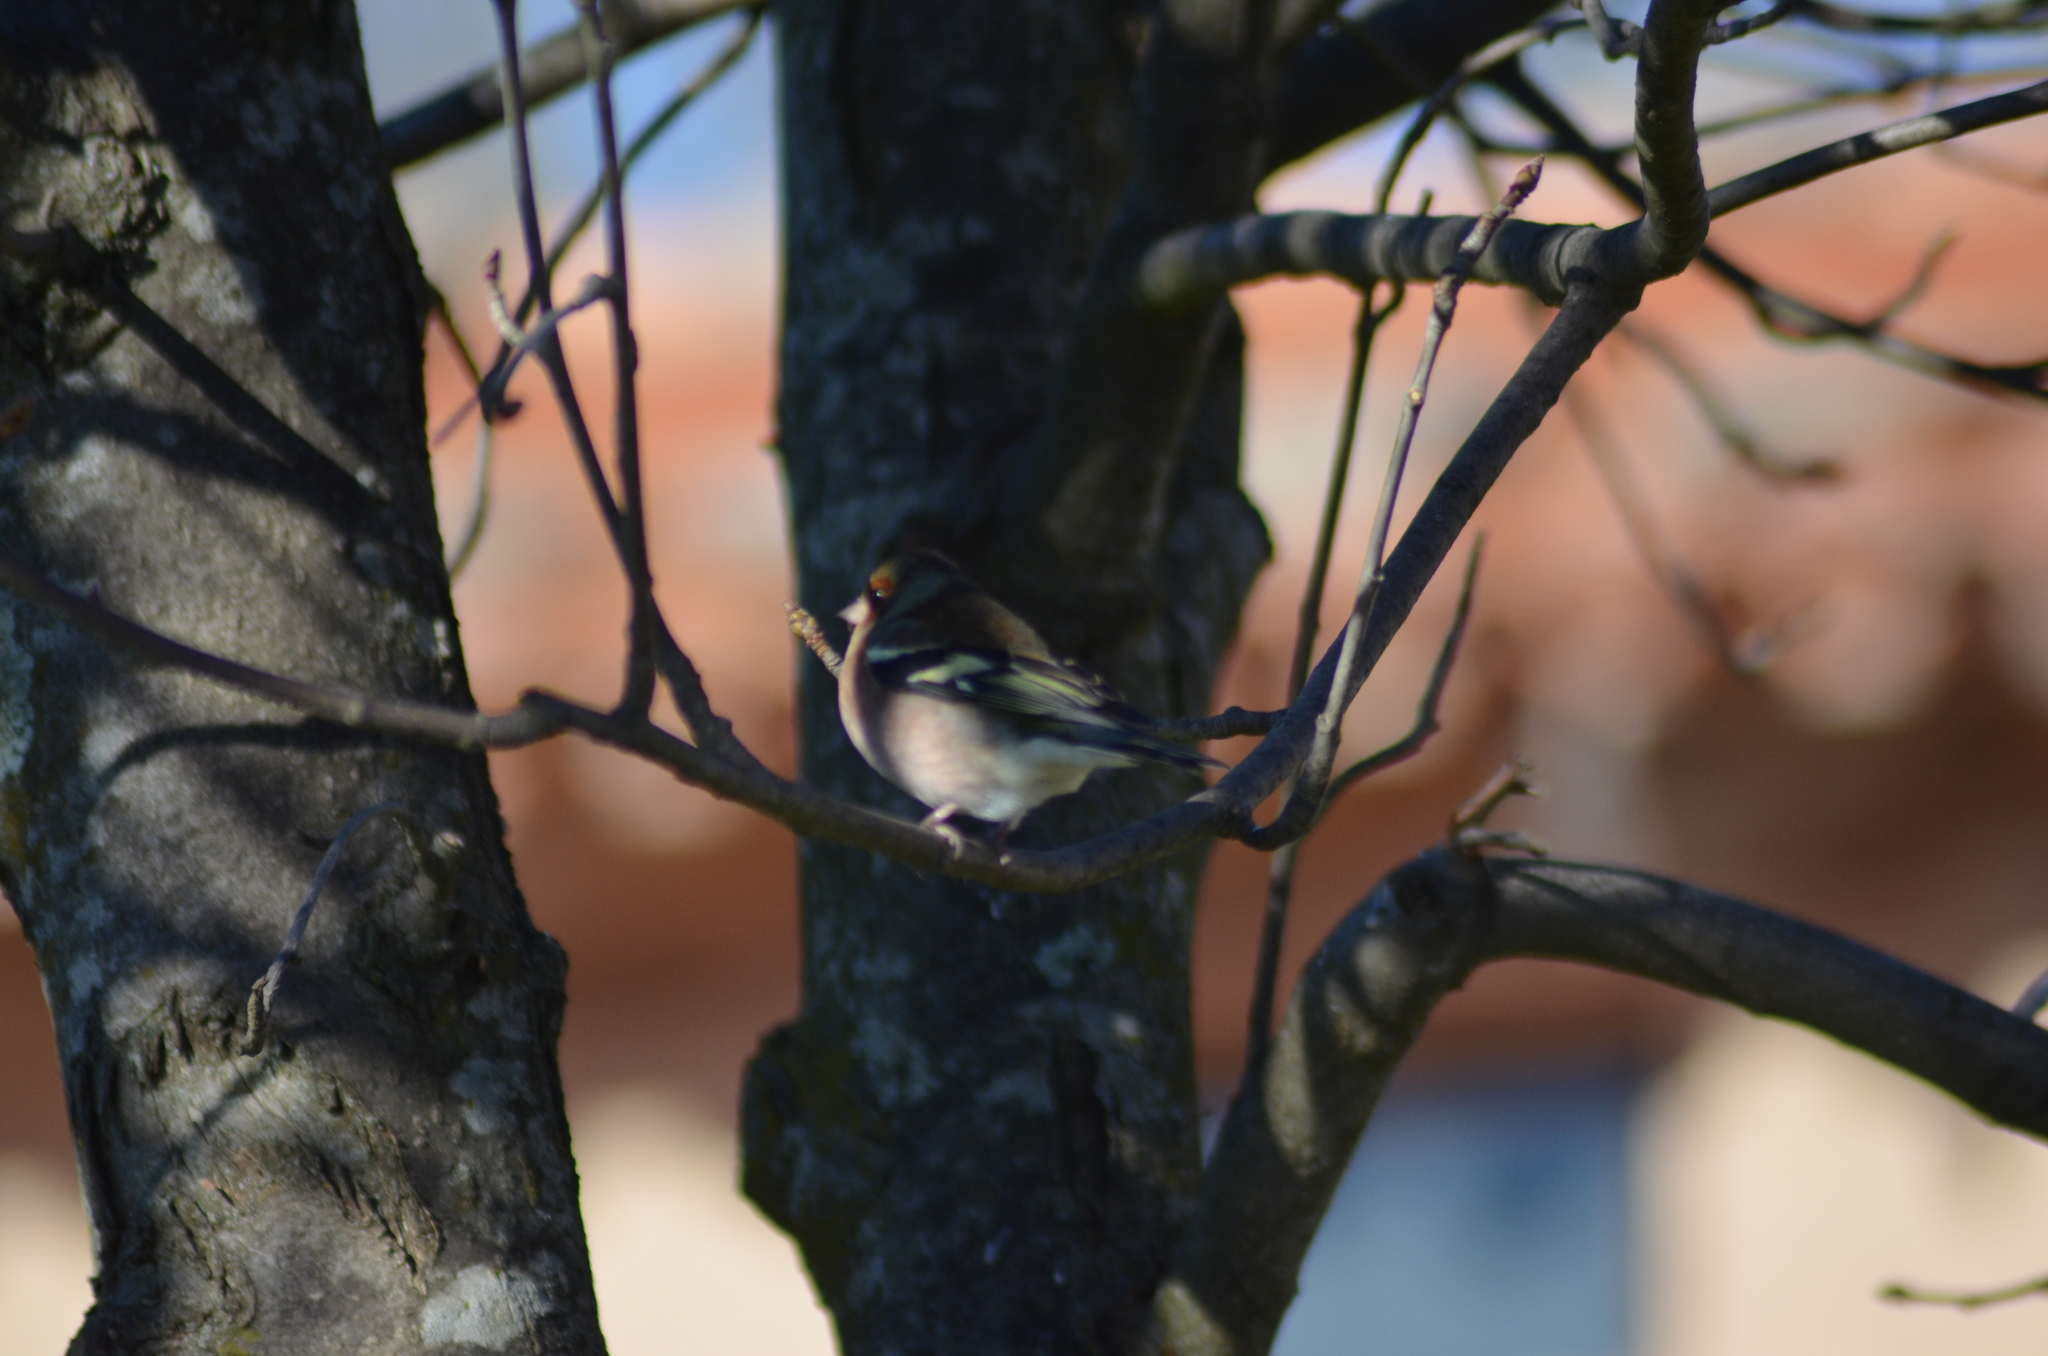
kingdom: Animalia
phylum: Chordata
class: Aves
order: Passeriformes
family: Fringillidae
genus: Fringilla
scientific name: Fringilla coelebs
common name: Common chaffinch
